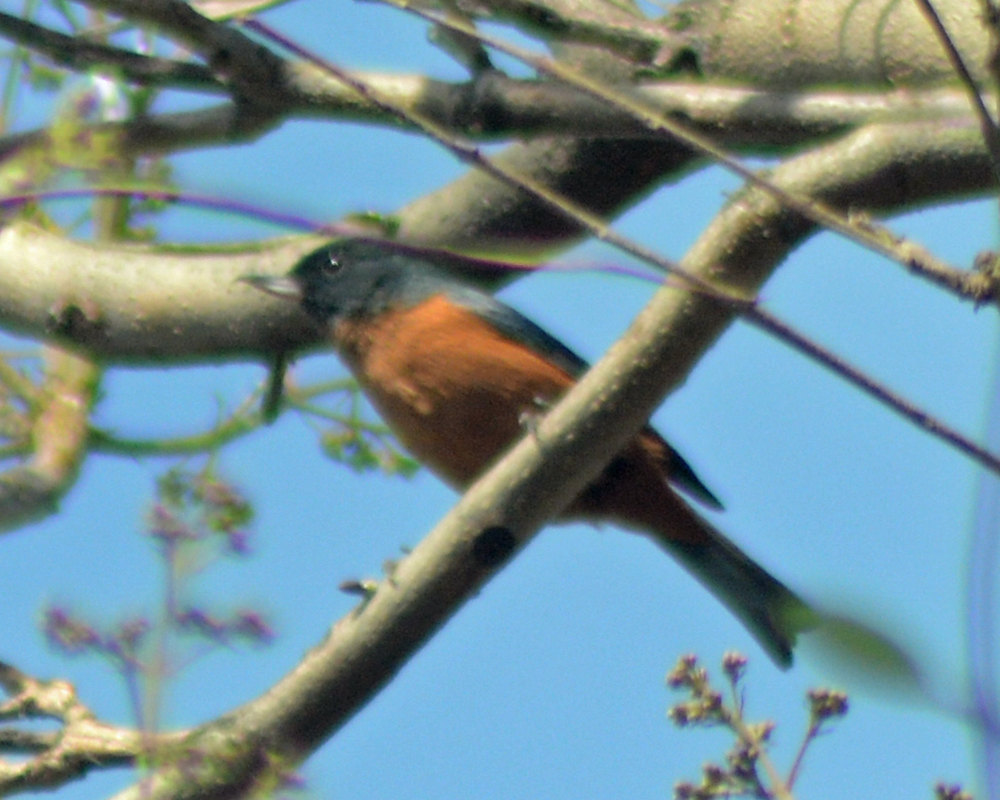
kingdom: Animalia
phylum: Chordata
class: Aves
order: Passeriformes
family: Thraupidae
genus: Diglossa
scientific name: Diglossa baritula
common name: Cinnamon-bellied flowerpiercer
